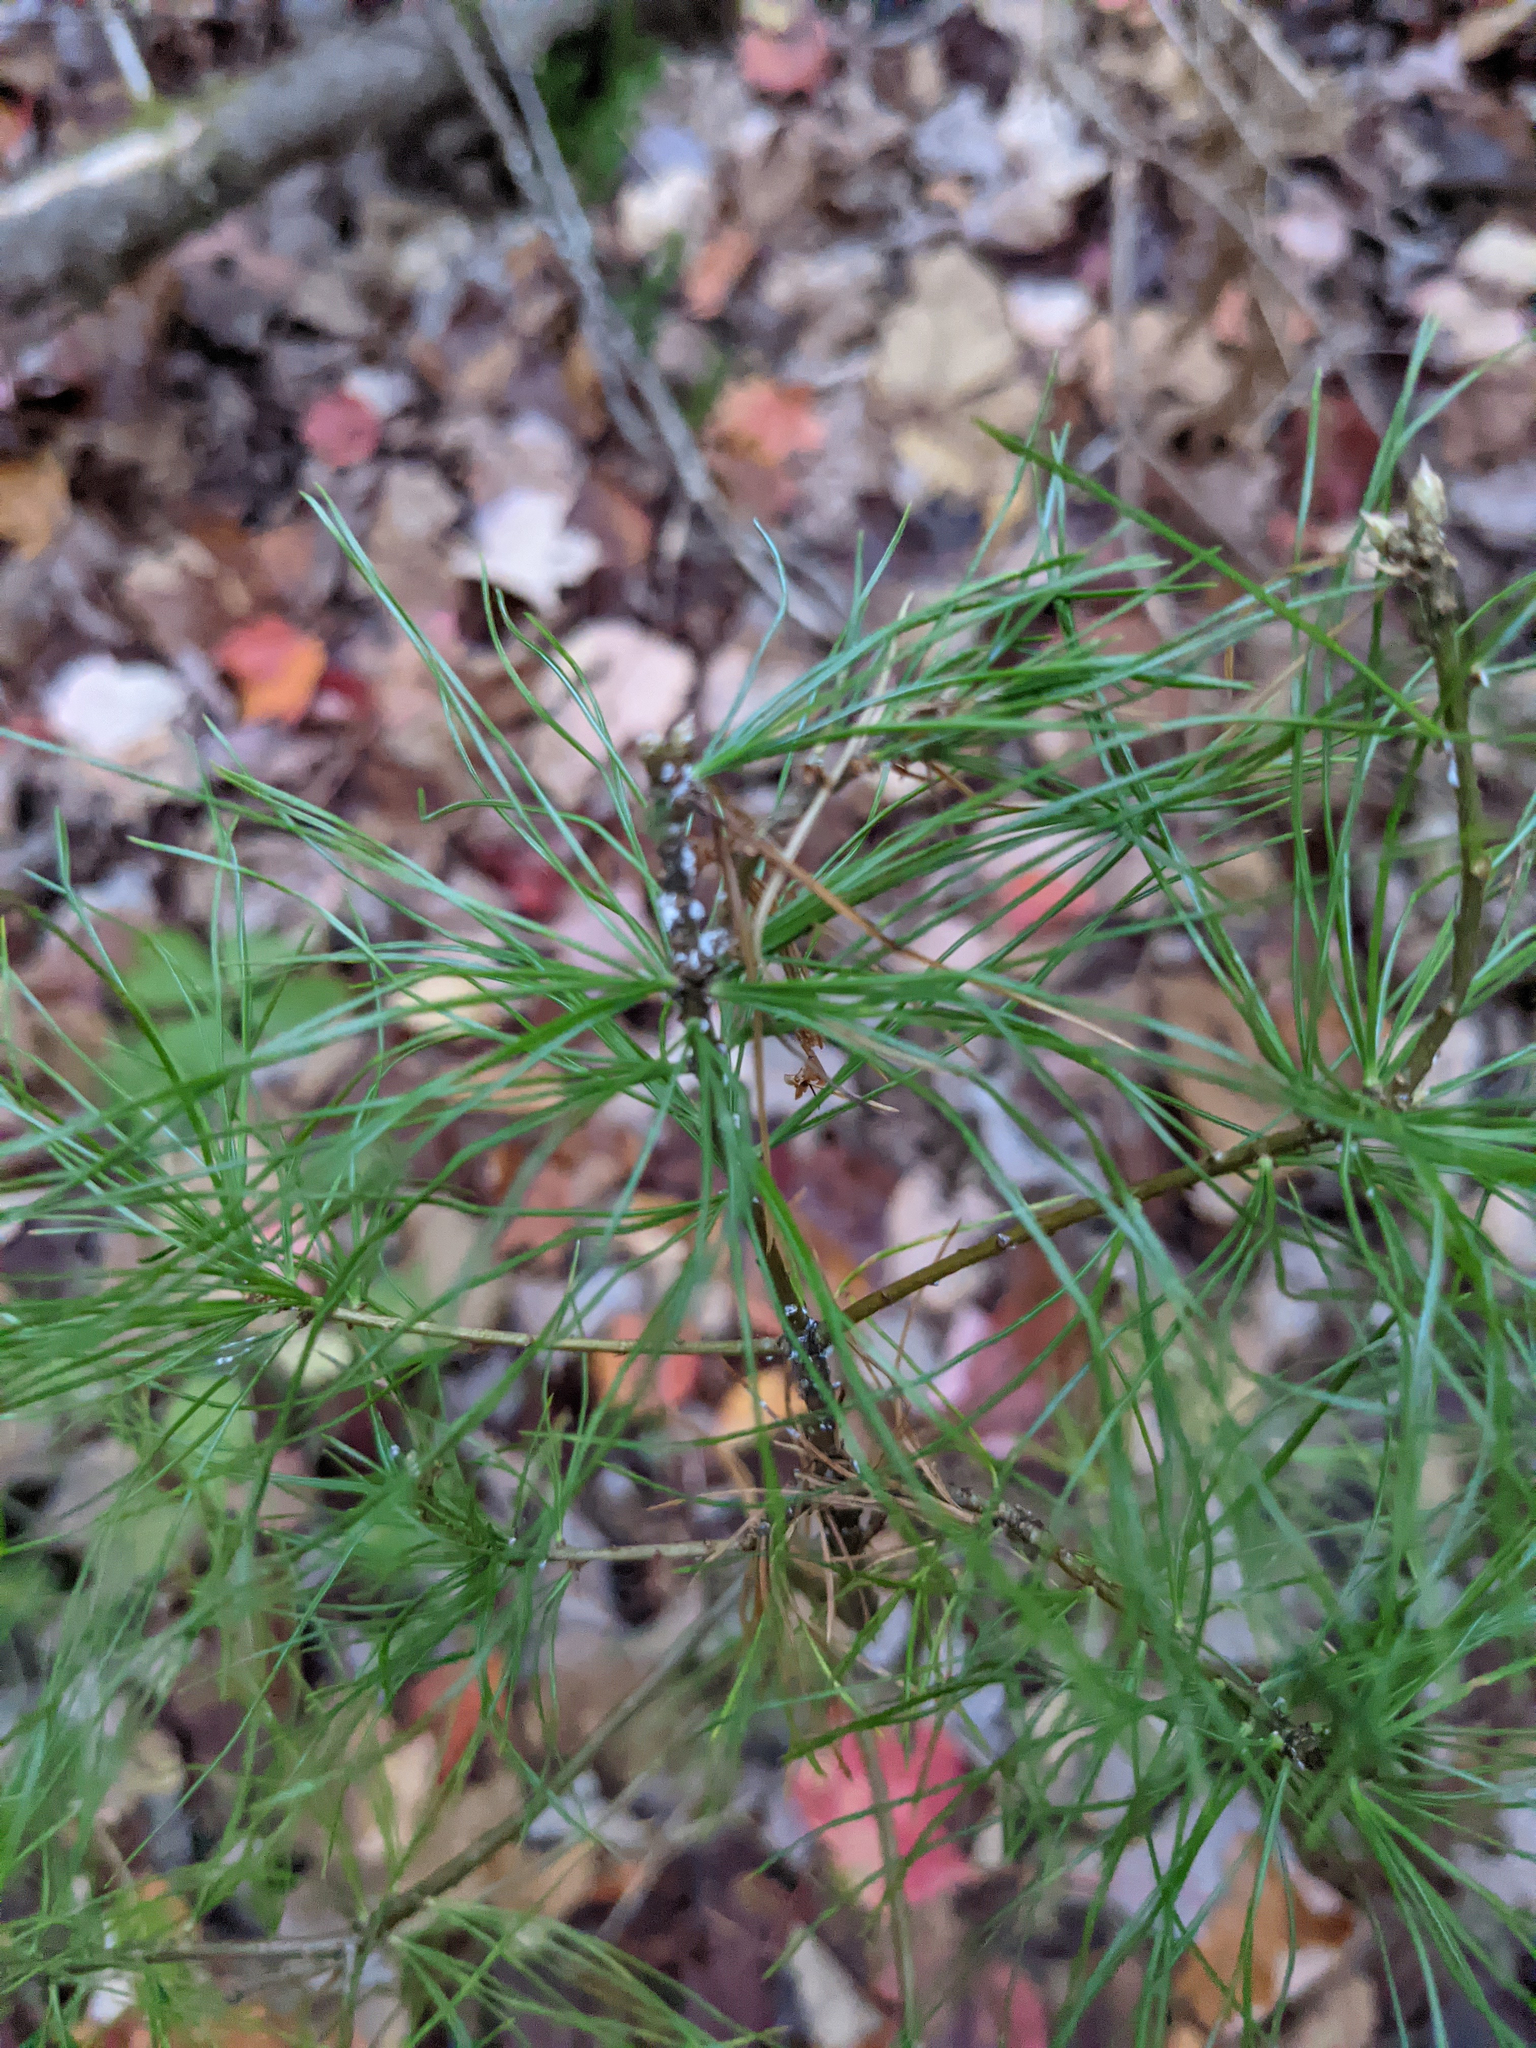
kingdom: Plantae
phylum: Tracheophyta
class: Pinopsida
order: Pinales
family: Pinaceae
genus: Pinus
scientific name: Pinus strobus
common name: Weymouth pine
